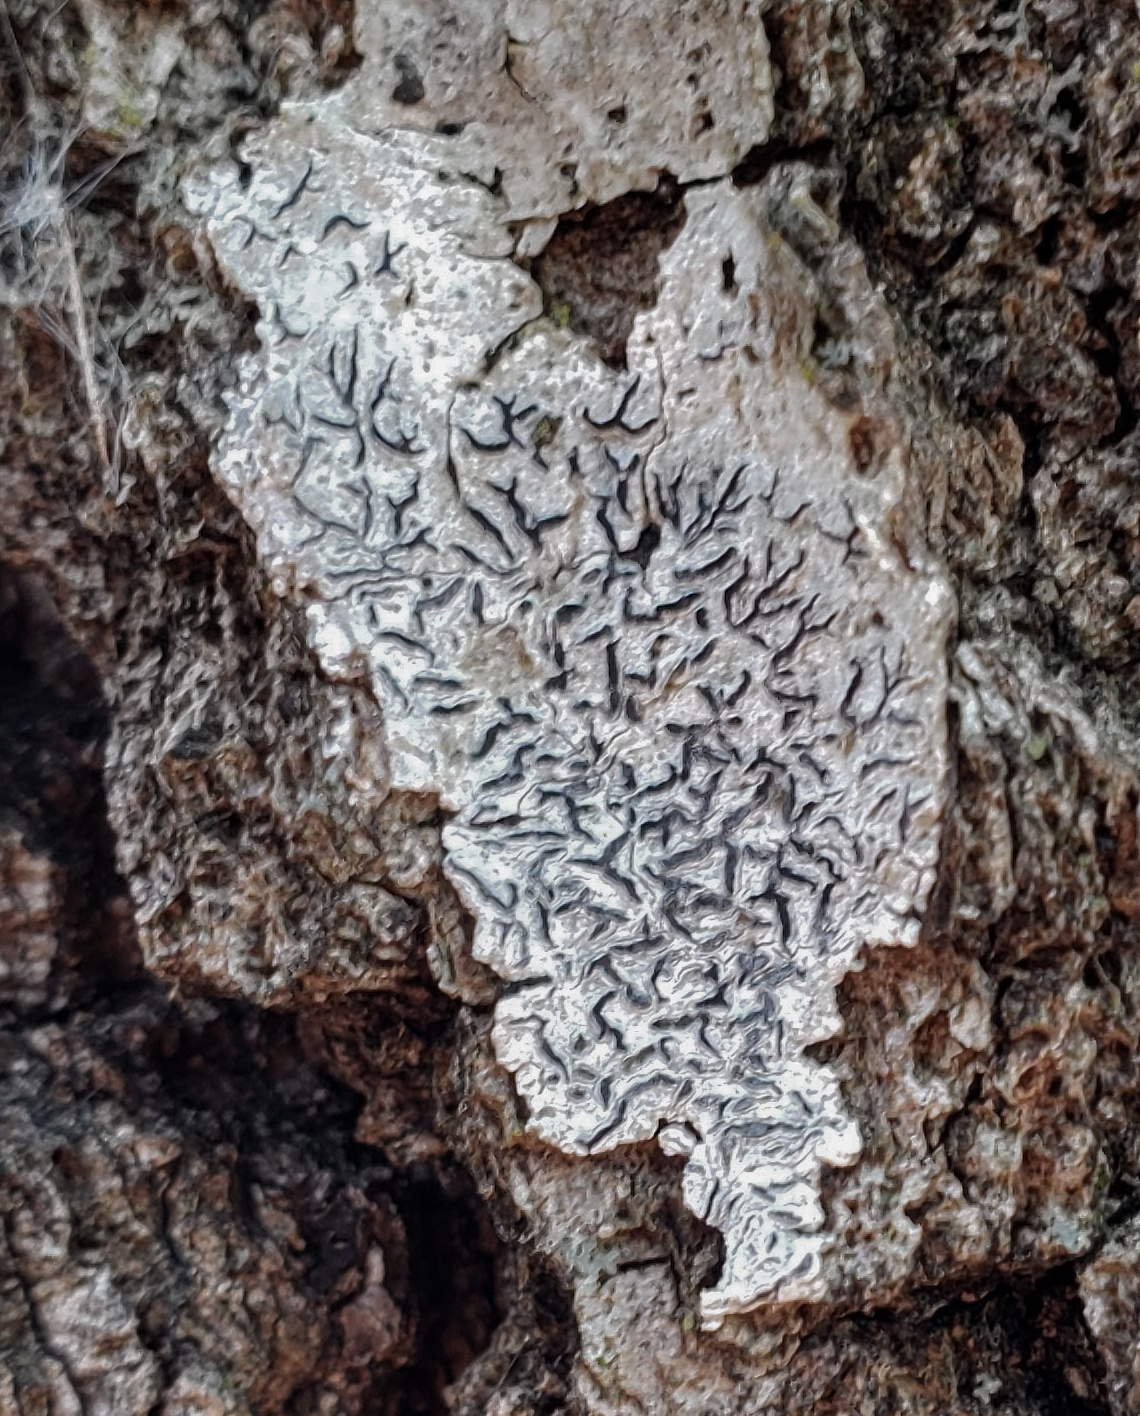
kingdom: Fungi
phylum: Ascomycota
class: Lecanoromycetes
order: Ostropales
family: Graphidaceae
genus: Graphis
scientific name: Graphis scripta
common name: Script lichen
